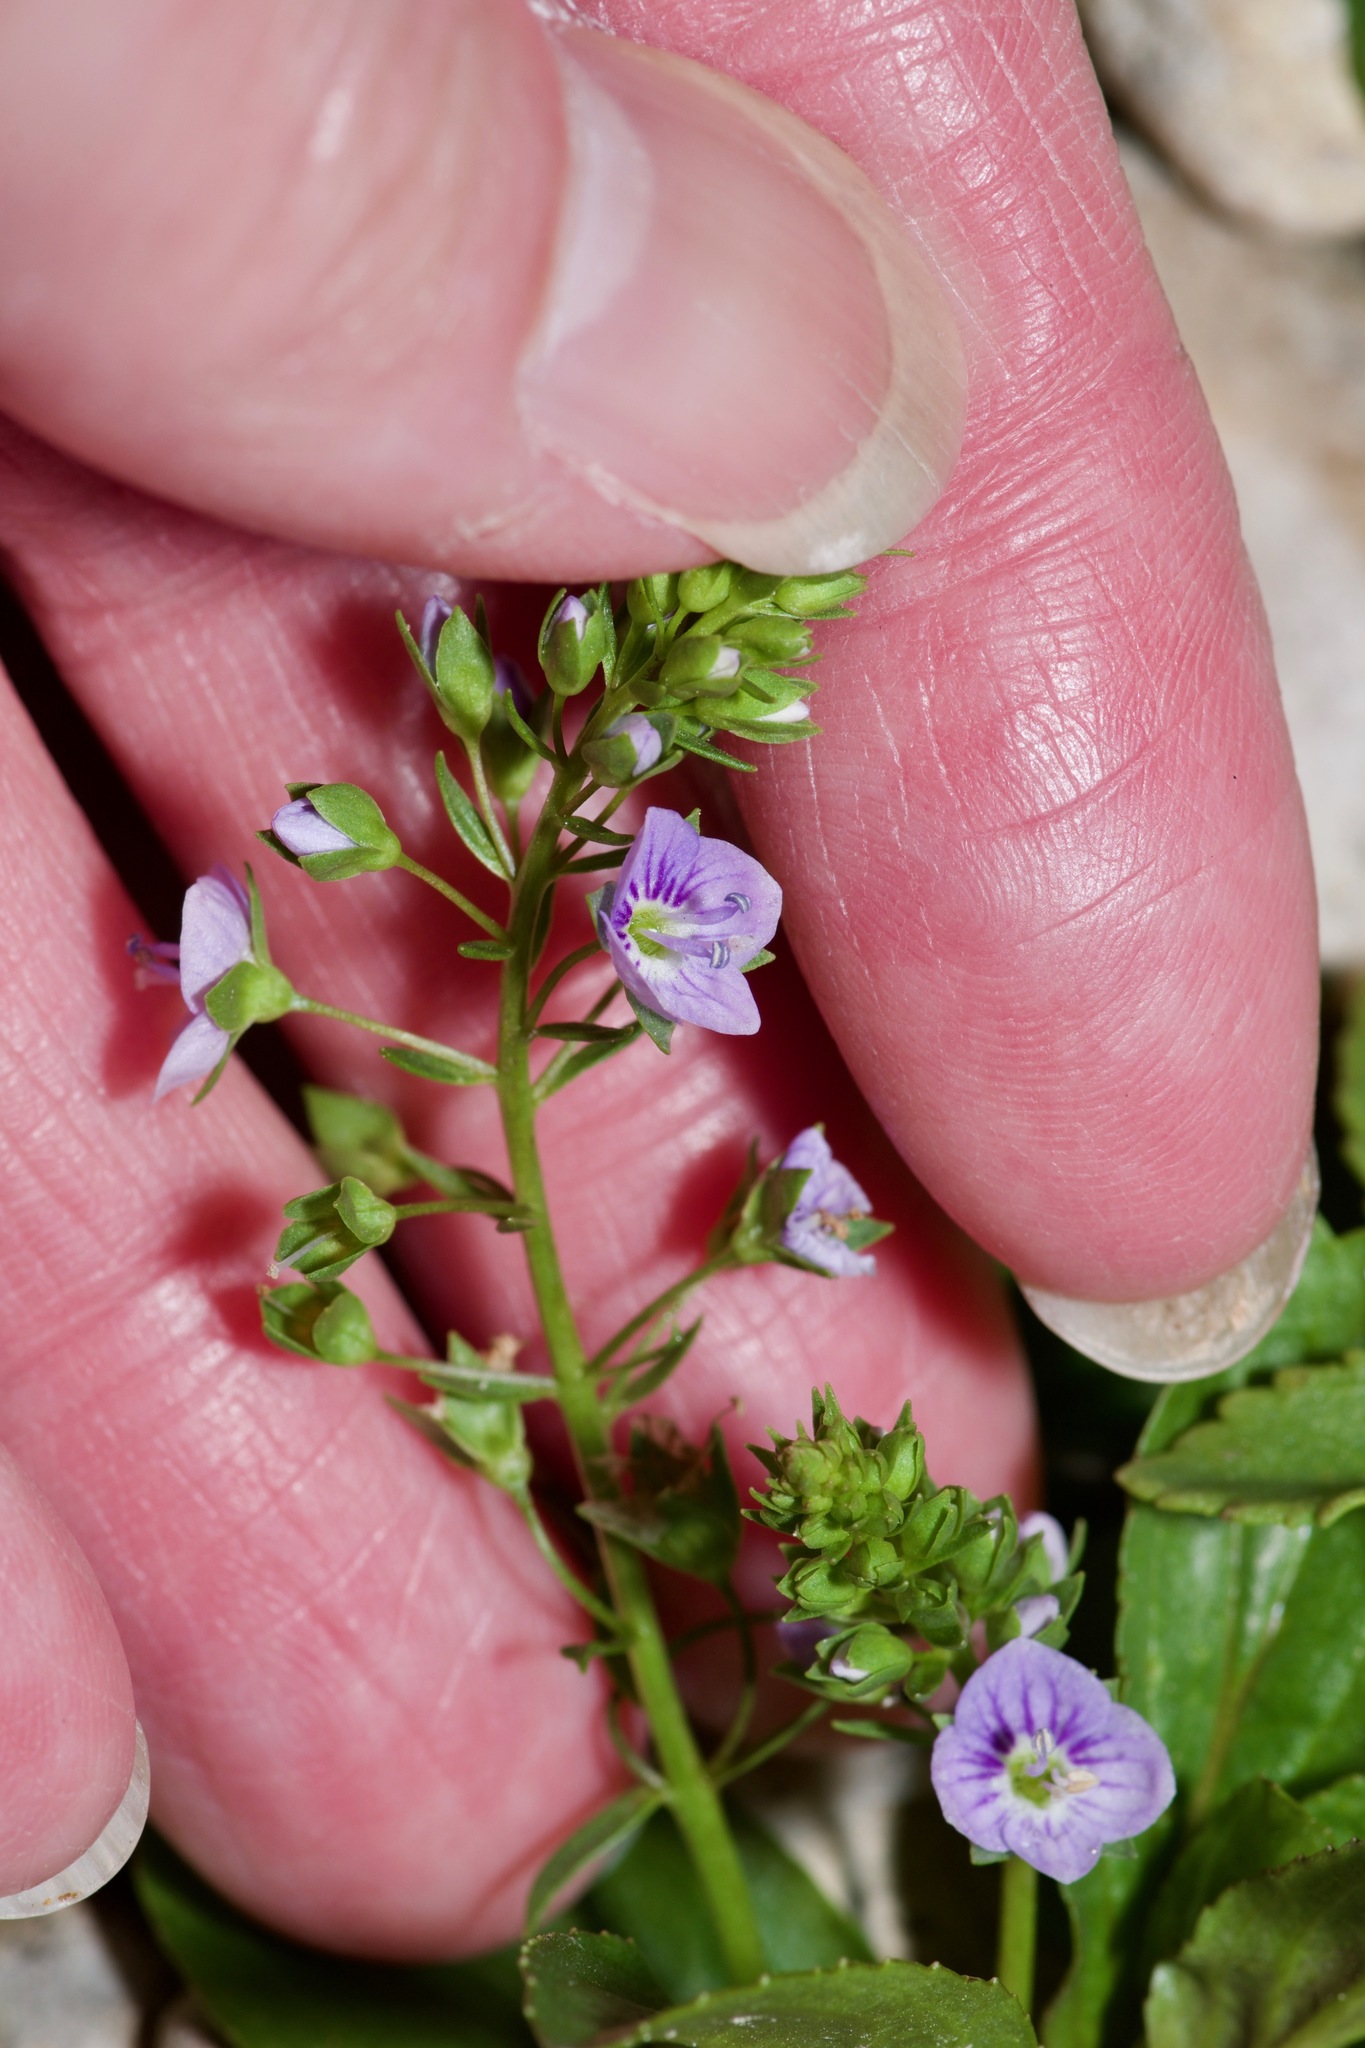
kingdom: Plantae
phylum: Tracheophyta
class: Magnoliopsida
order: Lamiales
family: Plantaginaceae
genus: Veronica
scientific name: Veronica anagallis-aquatica
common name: Water speedwell
